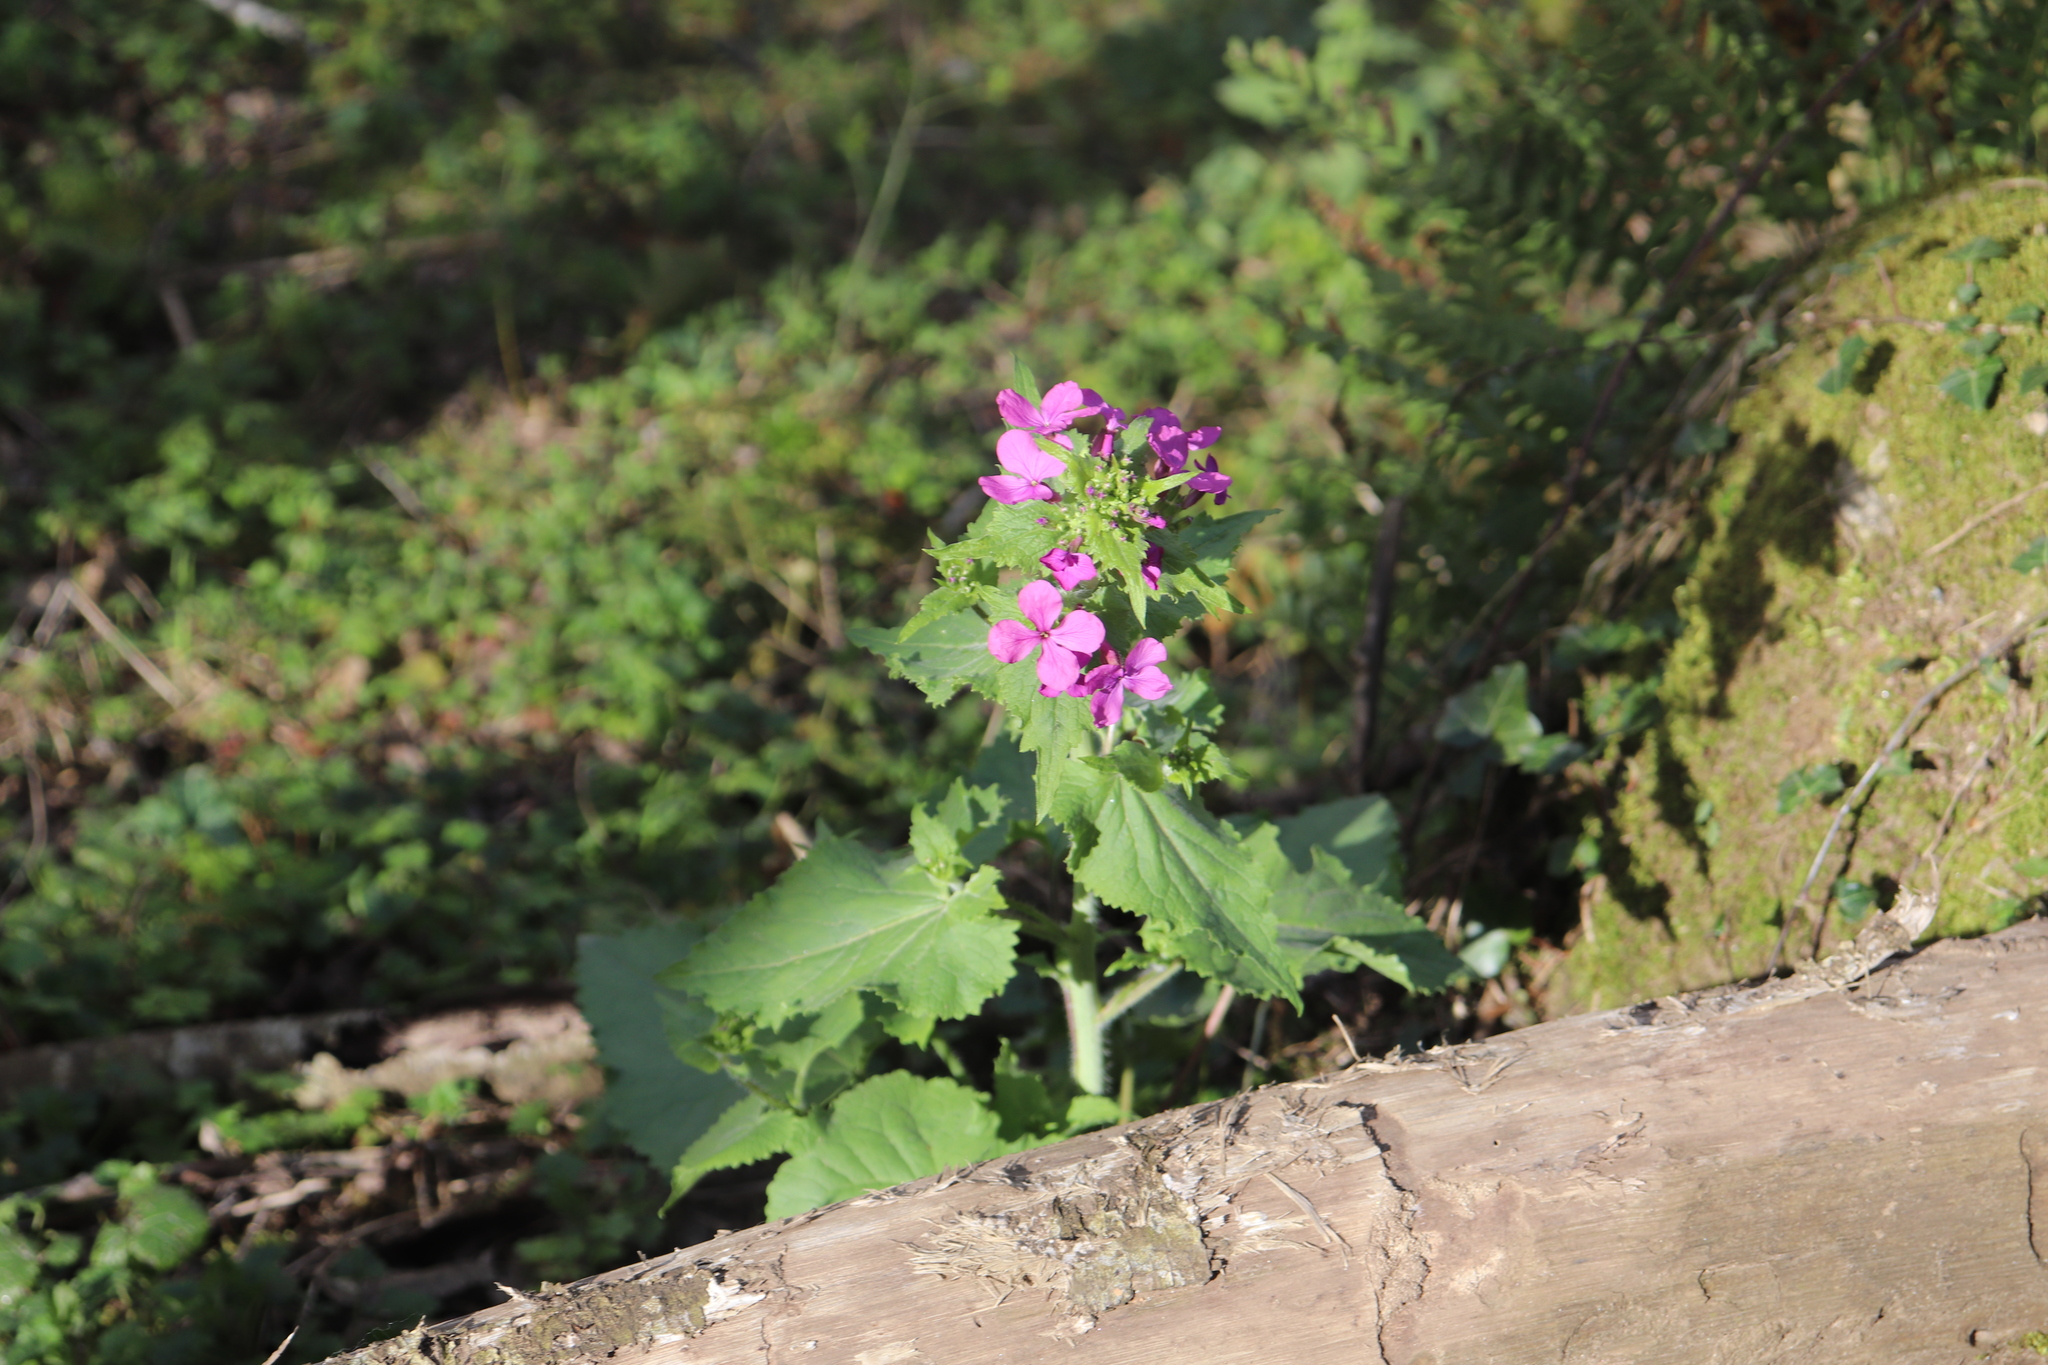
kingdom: Plantae
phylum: Tracheophyta
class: Magnoliopsida
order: Brassicales
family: Brassicaceae
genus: Lunaria
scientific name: Lunaria annua
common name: Honesty
